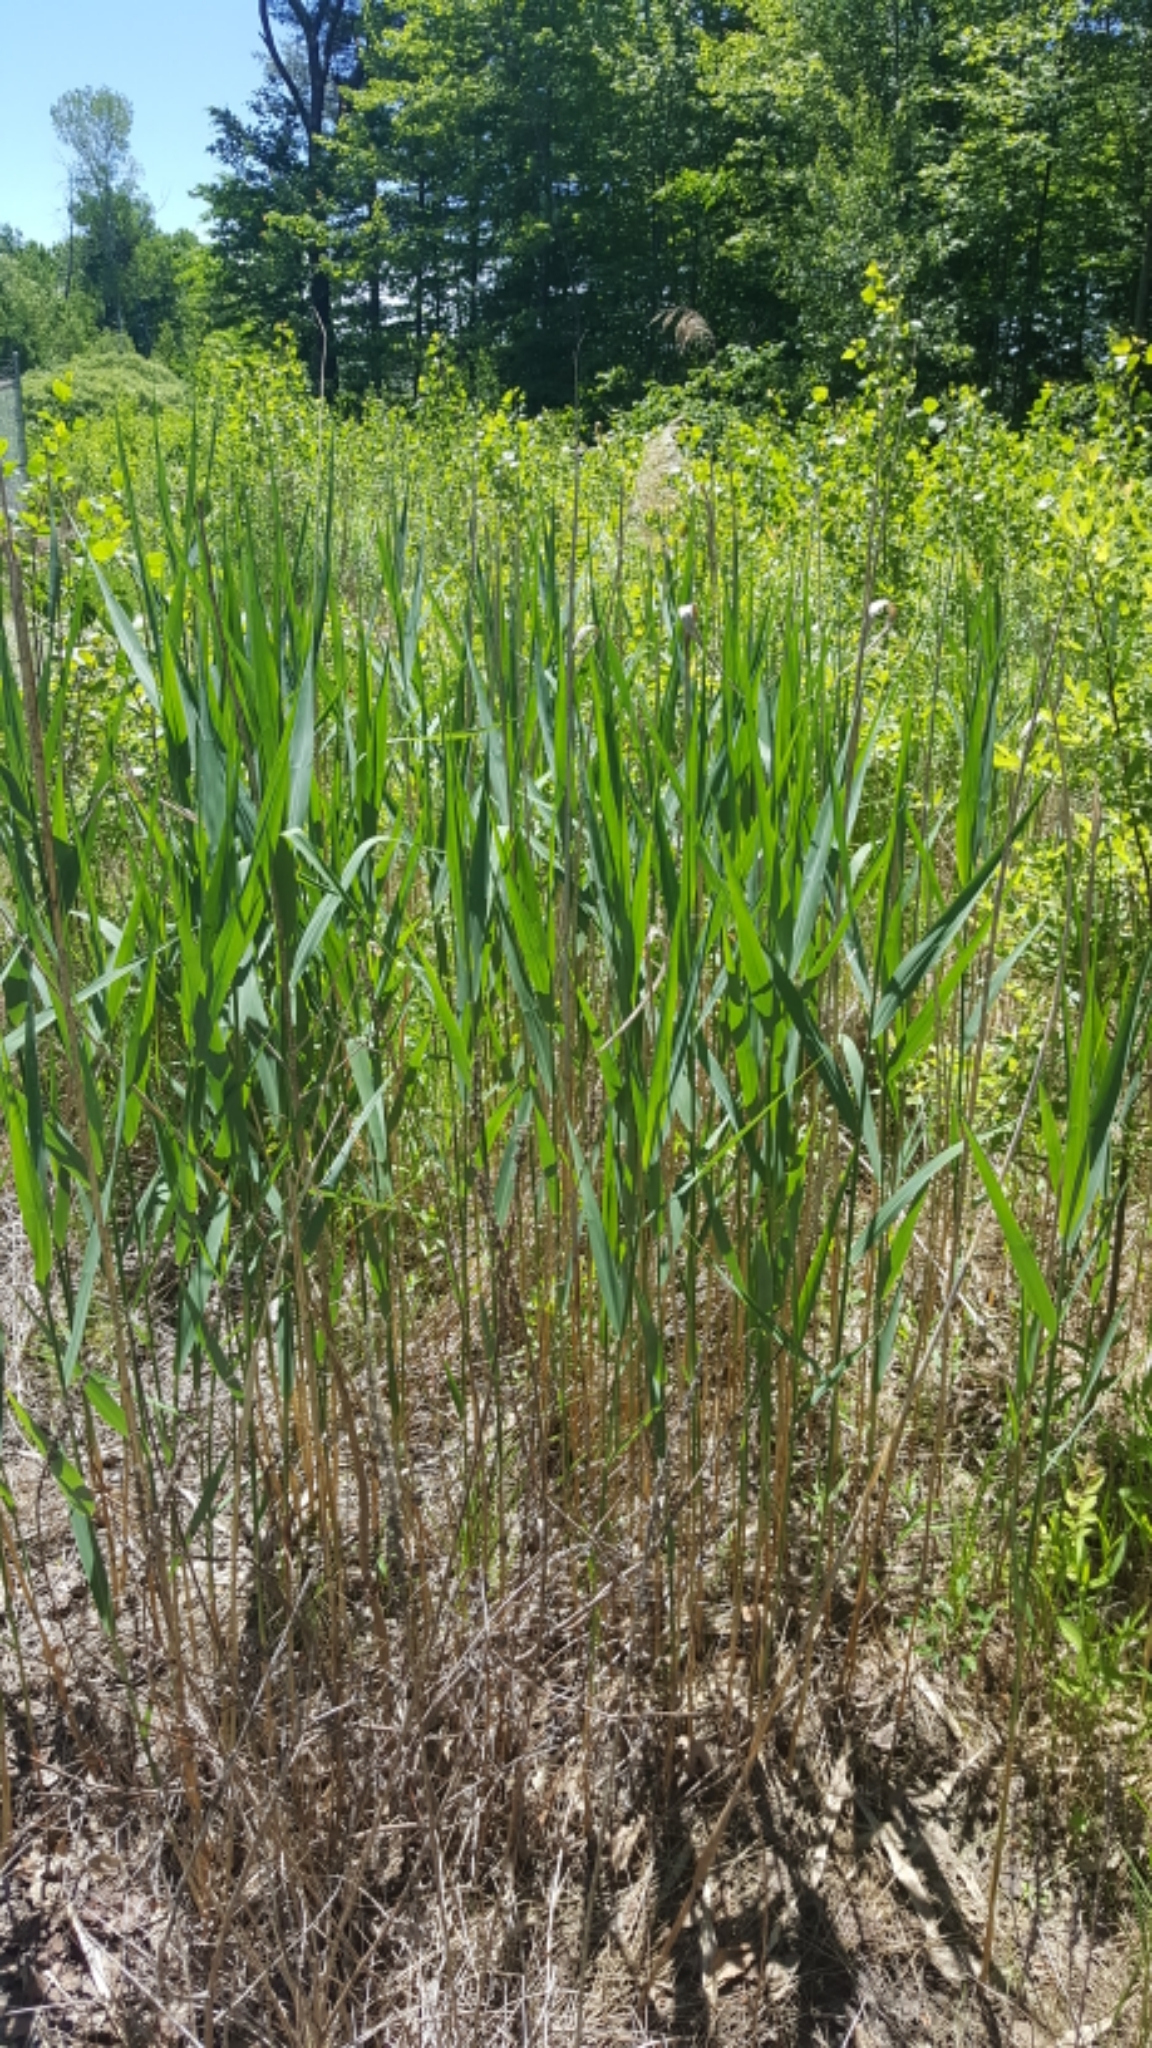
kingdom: Plantae
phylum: Tracheophyta
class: Liliopsida
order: Poales
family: Poaceae
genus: Phragmites
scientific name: Phragmites australis
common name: Common reed
